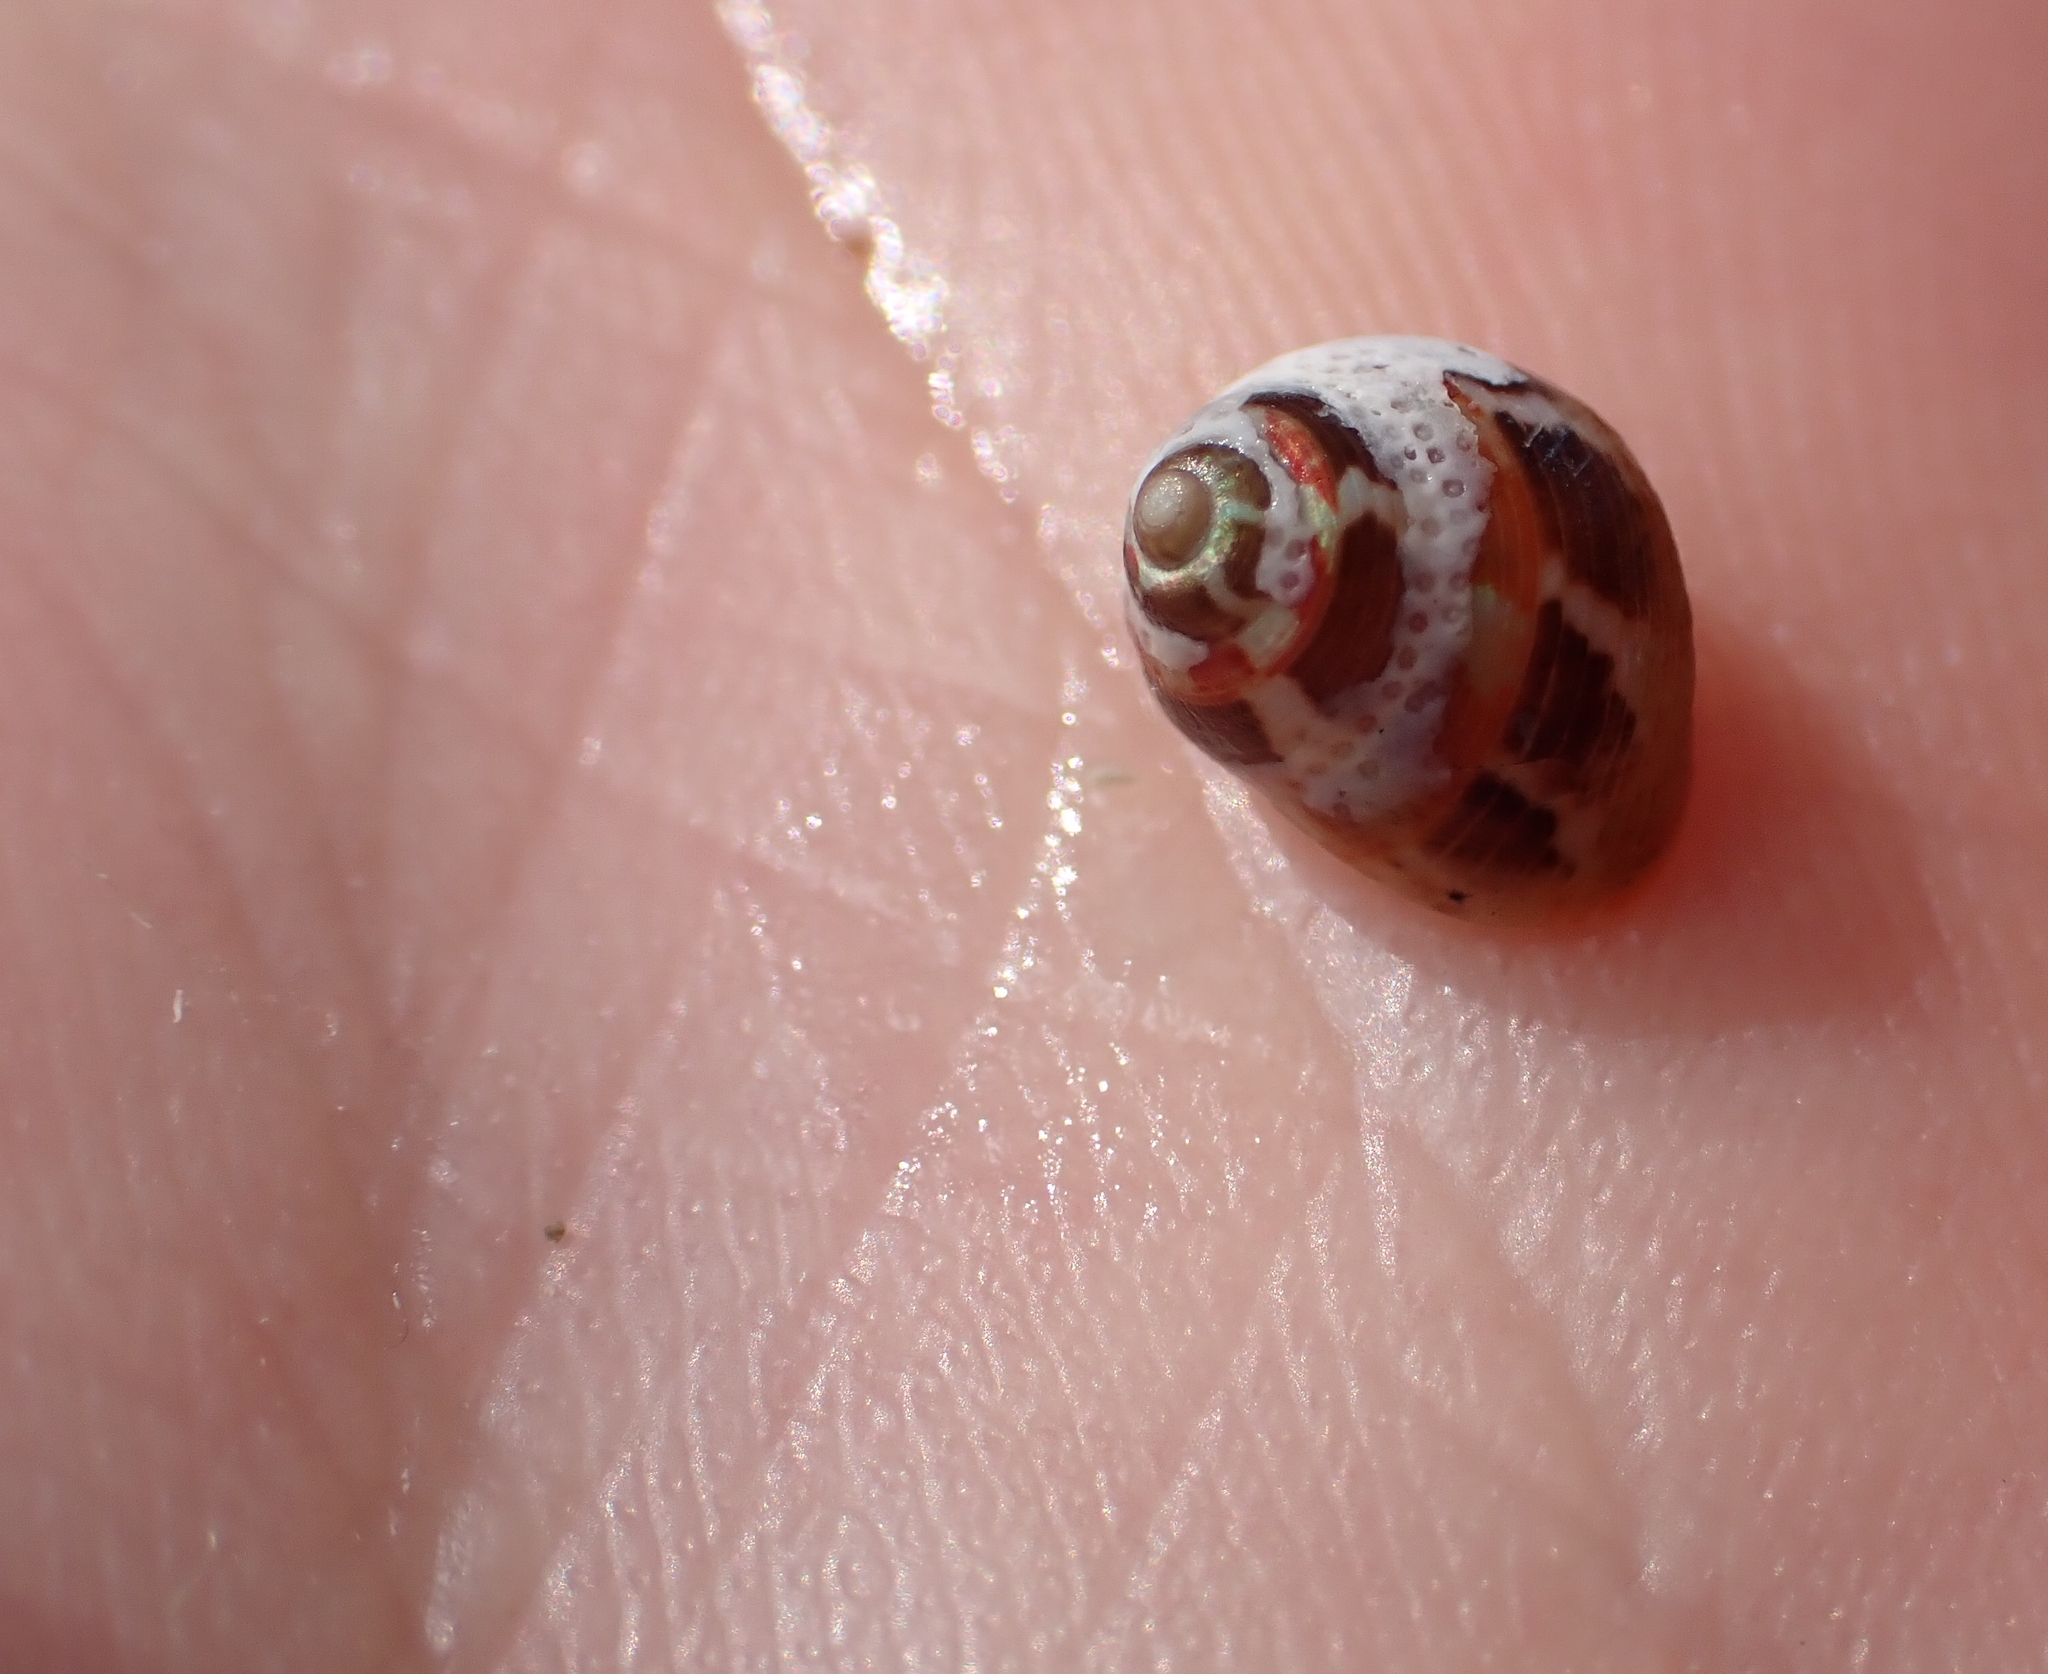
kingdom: Animalia
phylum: Mollusca
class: Gastropoda
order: Trochida
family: Trochidae
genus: Cantharidus
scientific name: Cantharidus dilatatus
